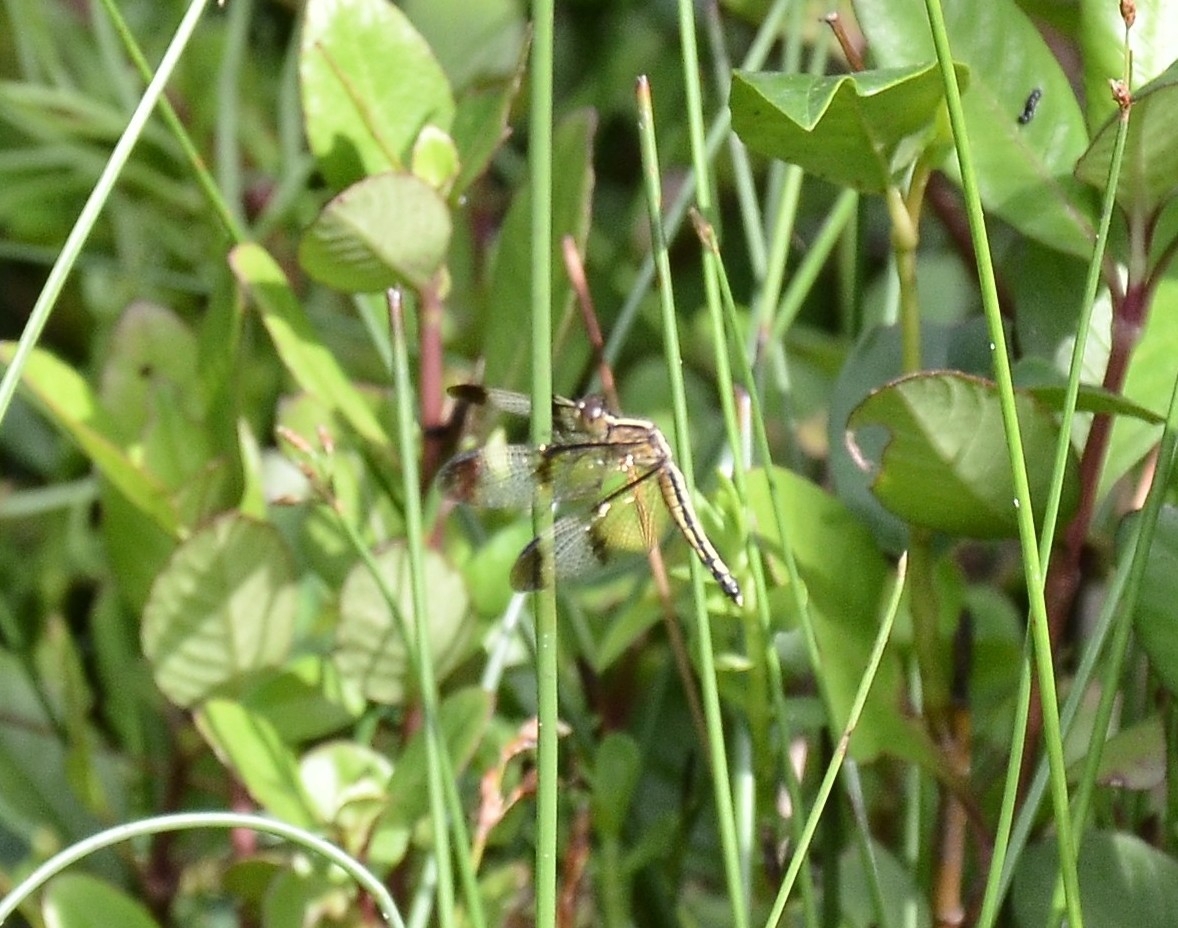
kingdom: Animalia
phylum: Arthropoda
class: Insecta
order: Odonata
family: Libellulidae
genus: Neurothemis
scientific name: Neurothemis tullia
